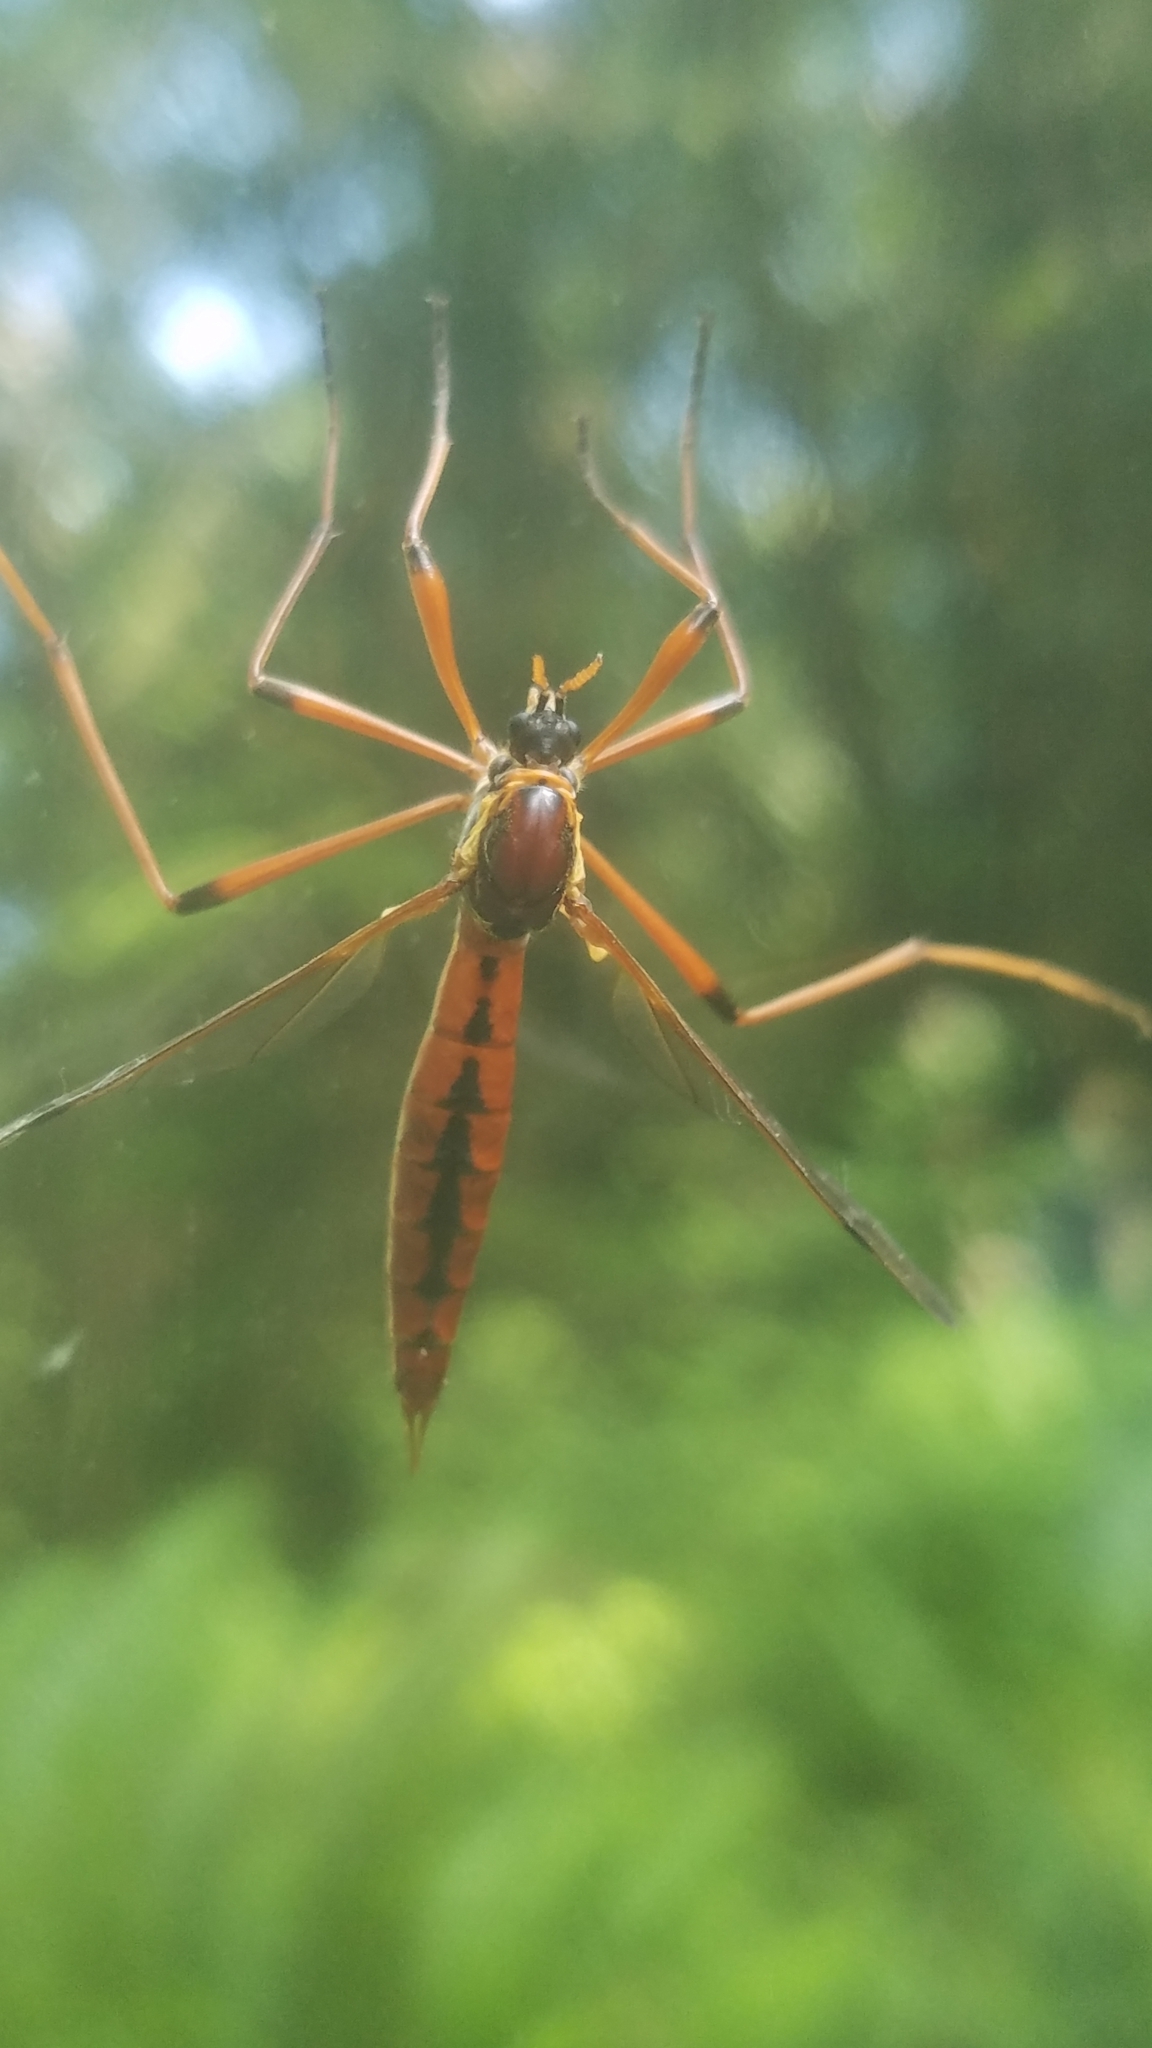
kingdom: Animalia
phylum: Arthropoda
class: Insecta
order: Diptera
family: Tipulidae
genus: Phoroctenia
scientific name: Phoroctenia vittata
